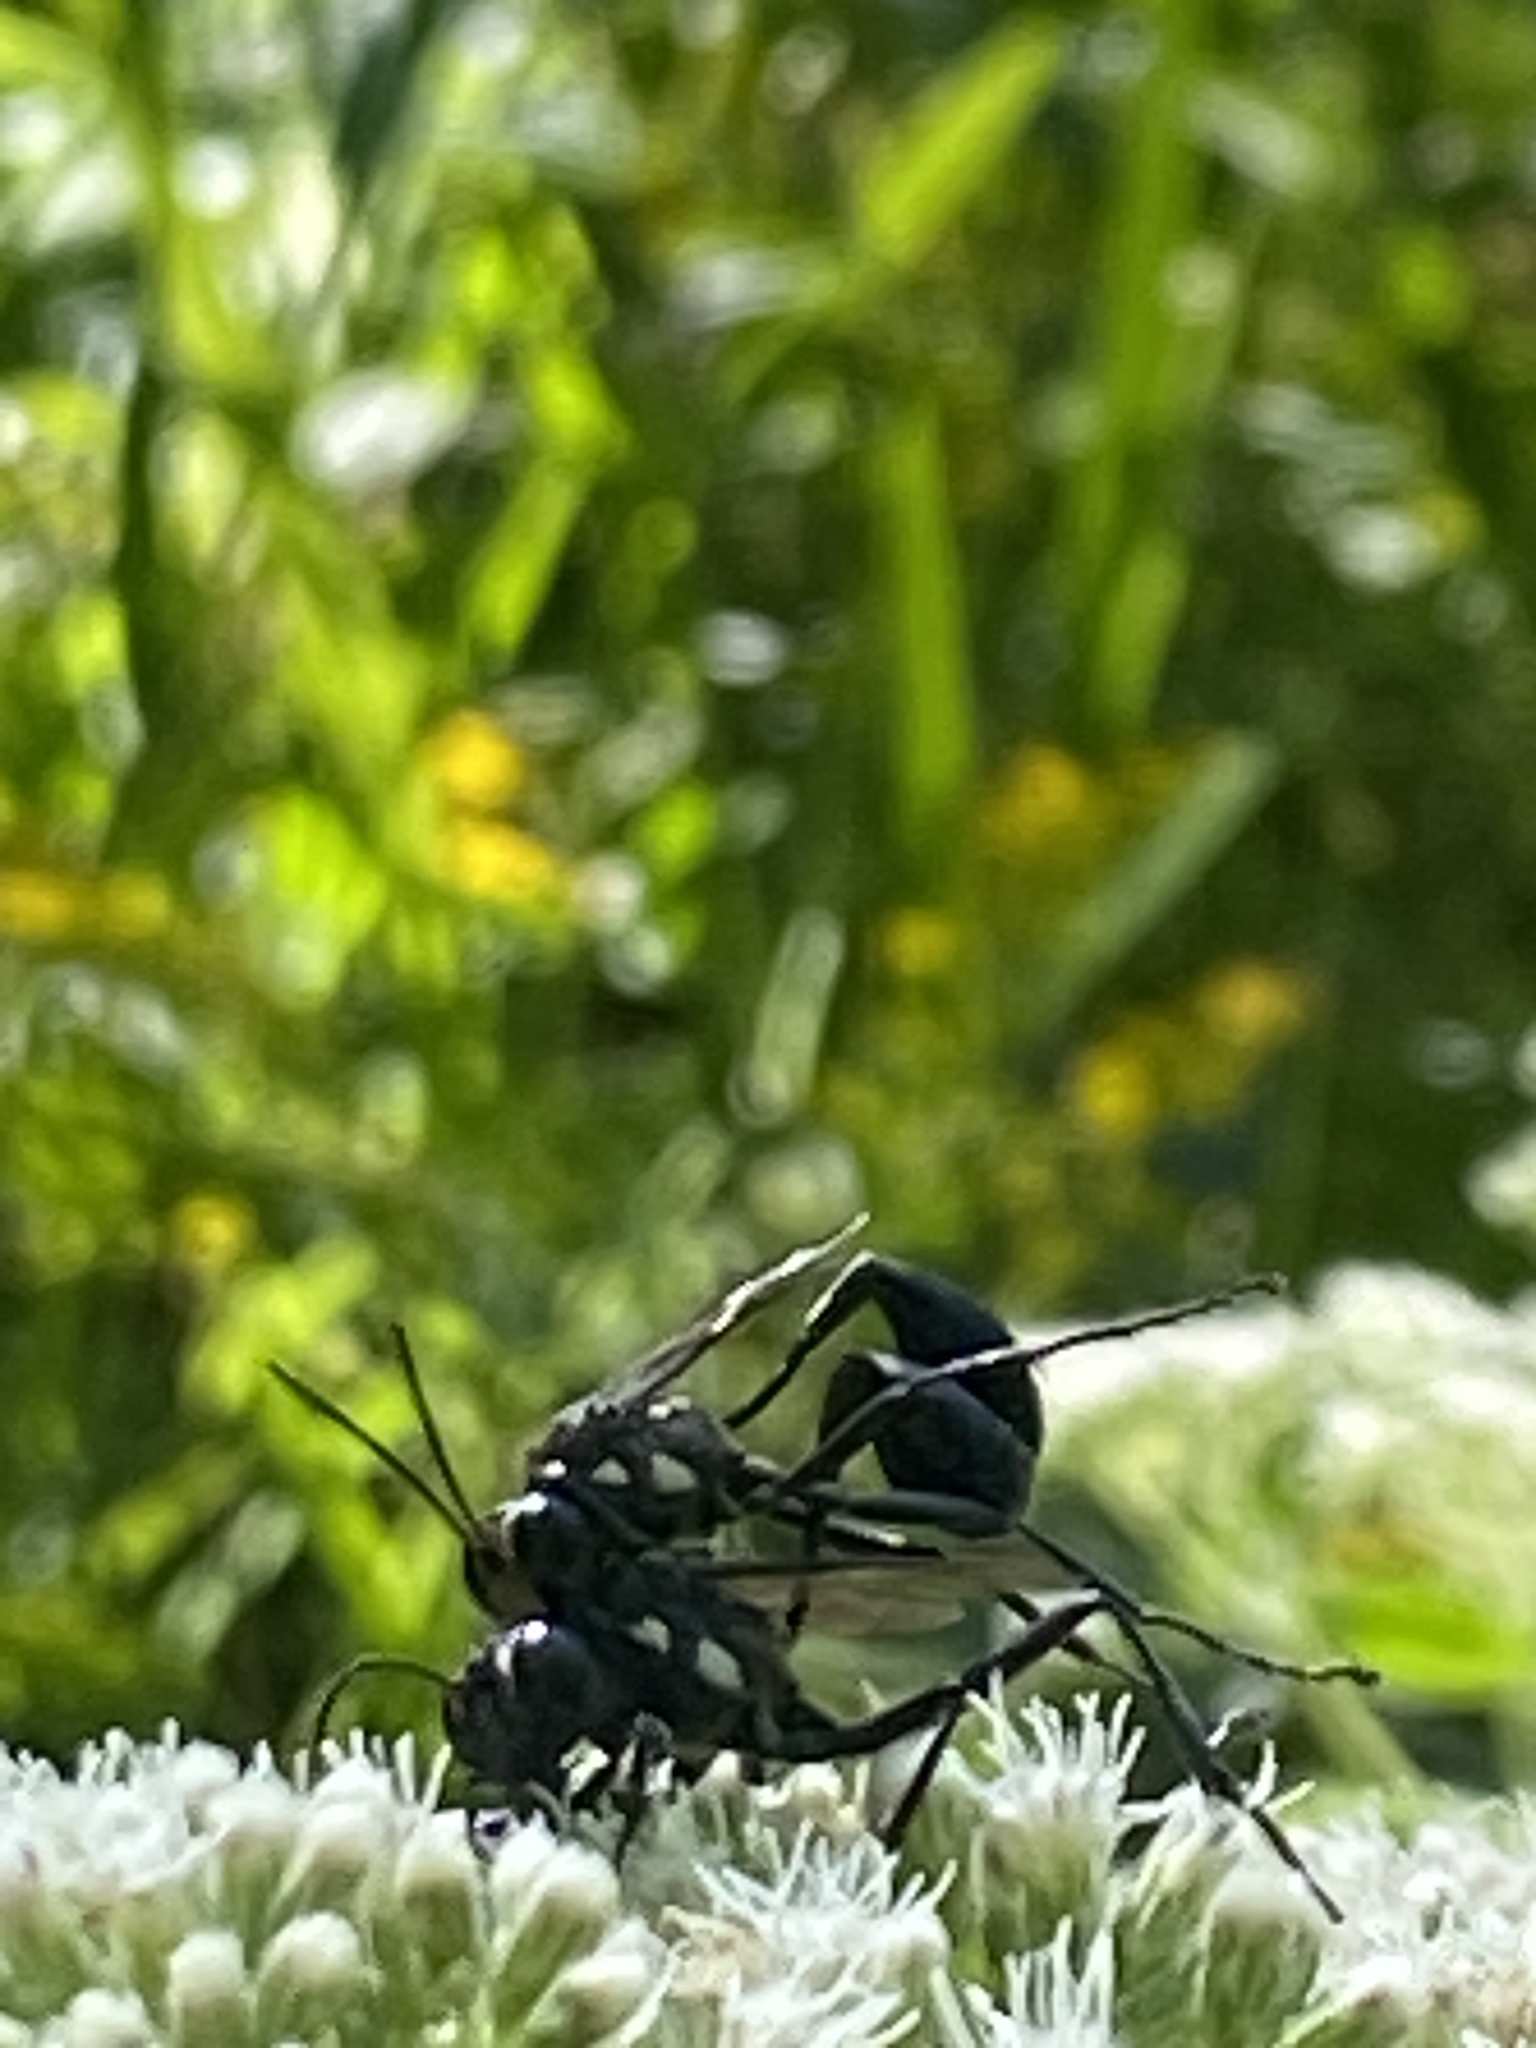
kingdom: Animalia
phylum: Arthropoda
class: Insecta
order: Hymenoptera
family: Sphecidae
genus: Eremnophila
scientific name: Eremnophila aureonotata
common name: Gold-marked thread-waisted wasp
